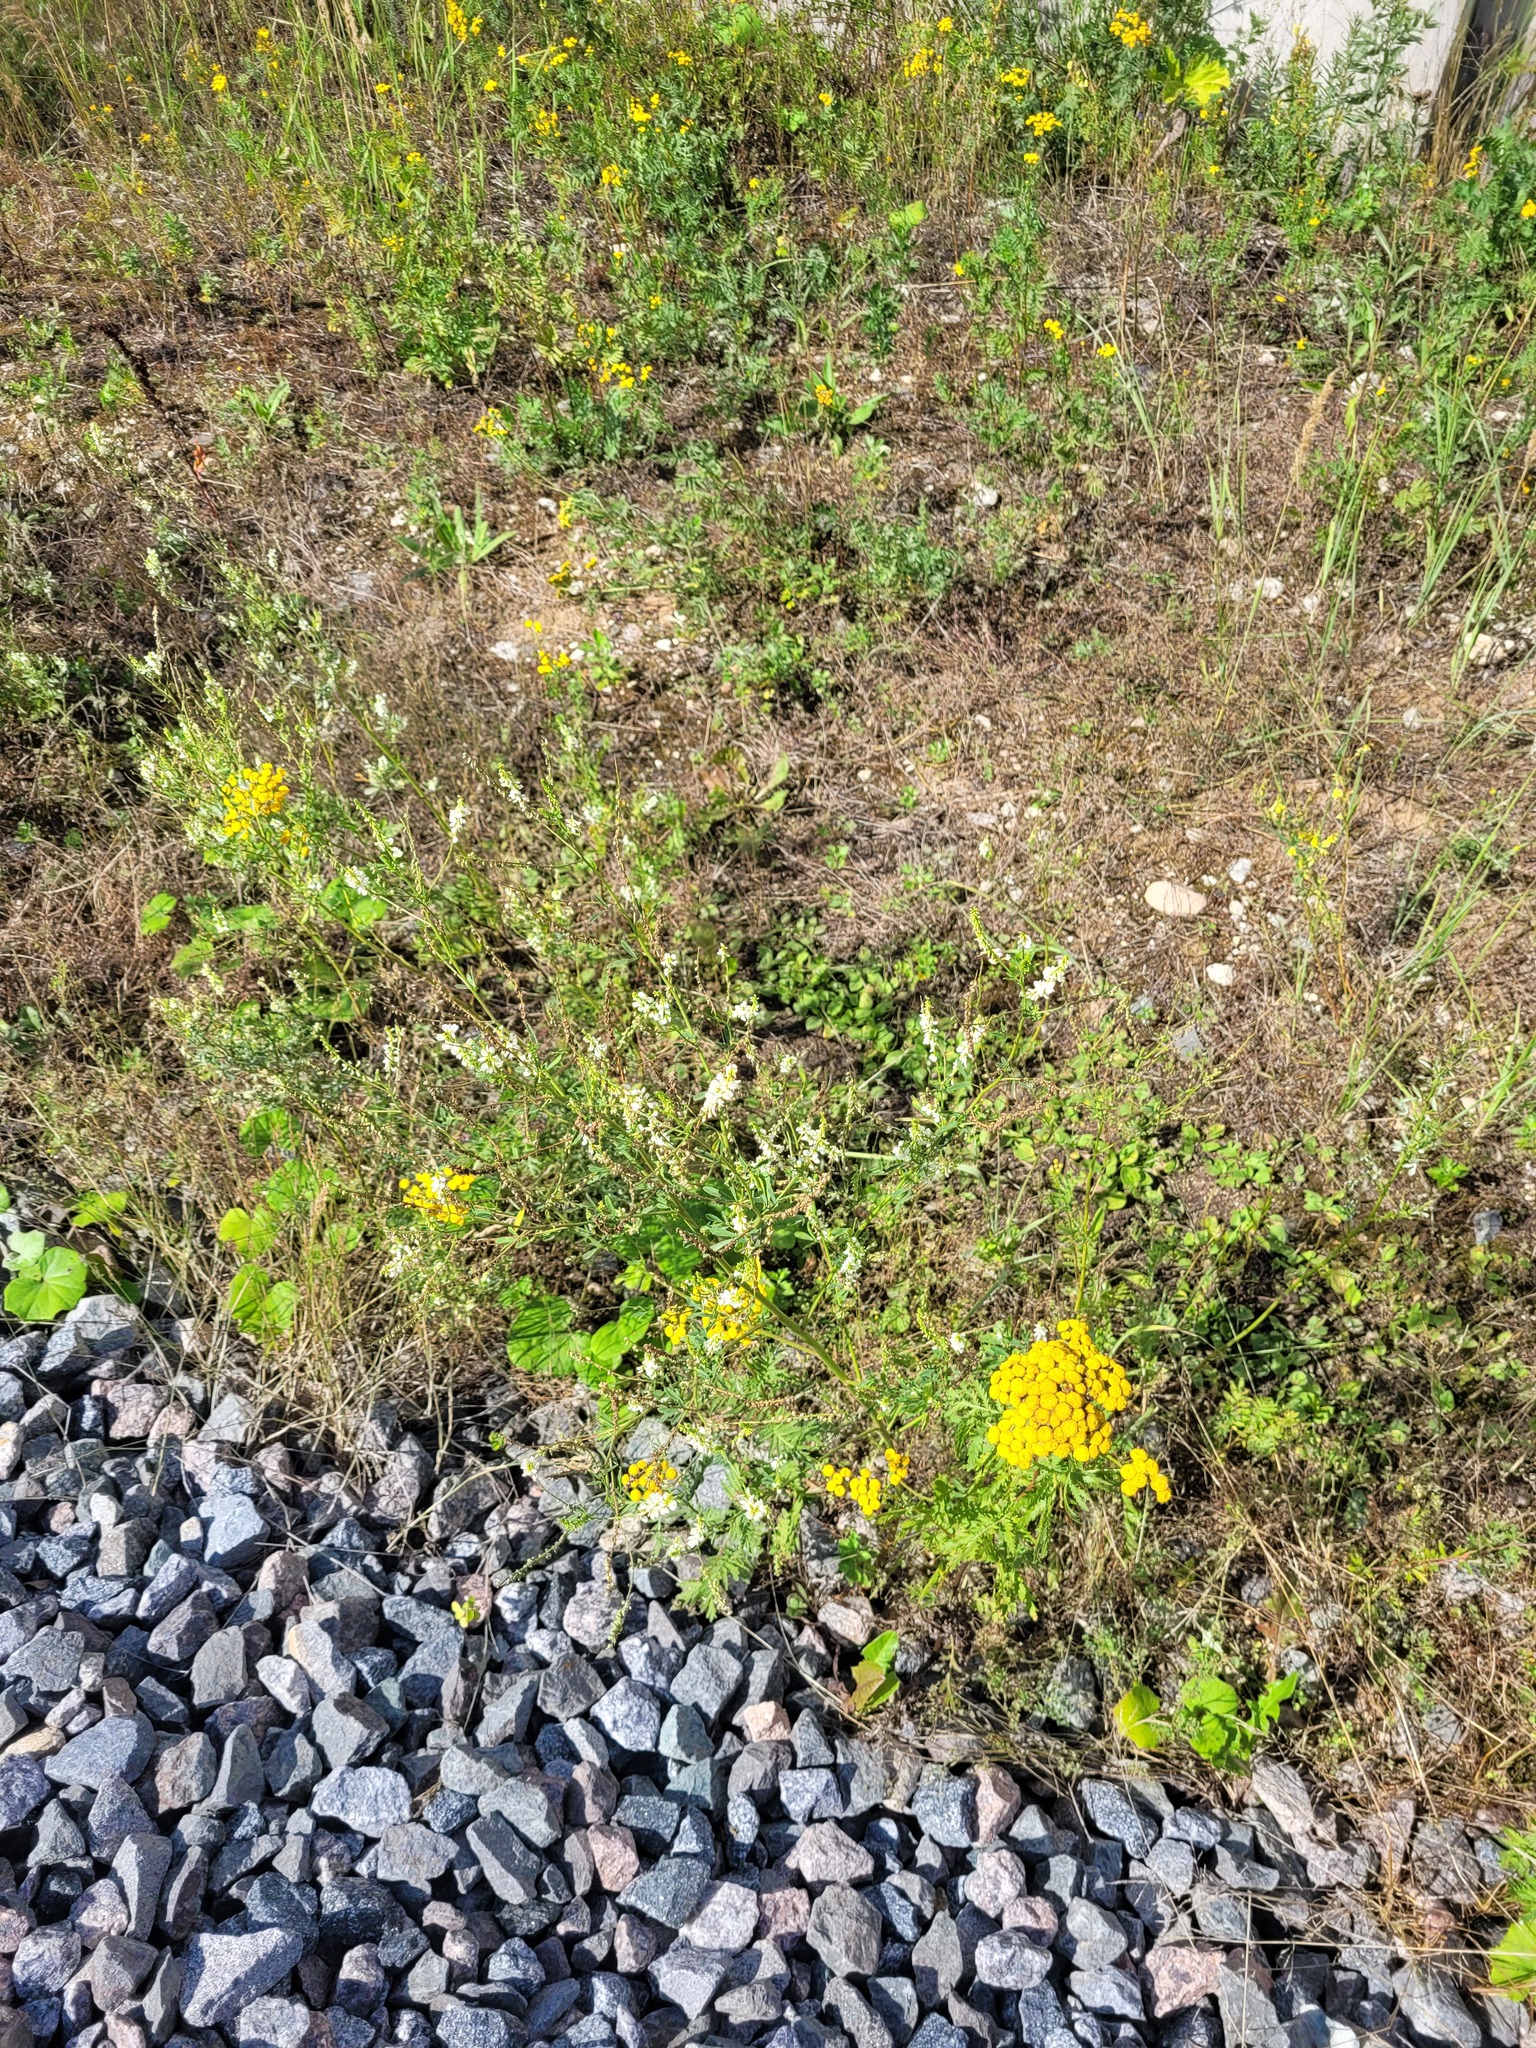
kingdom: Plantae
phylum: Tracheophyta
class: Magnoliopsida
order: Fabales
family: Fabaceae
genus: Melilotus
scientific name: Melilotus albus
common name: White melilot
